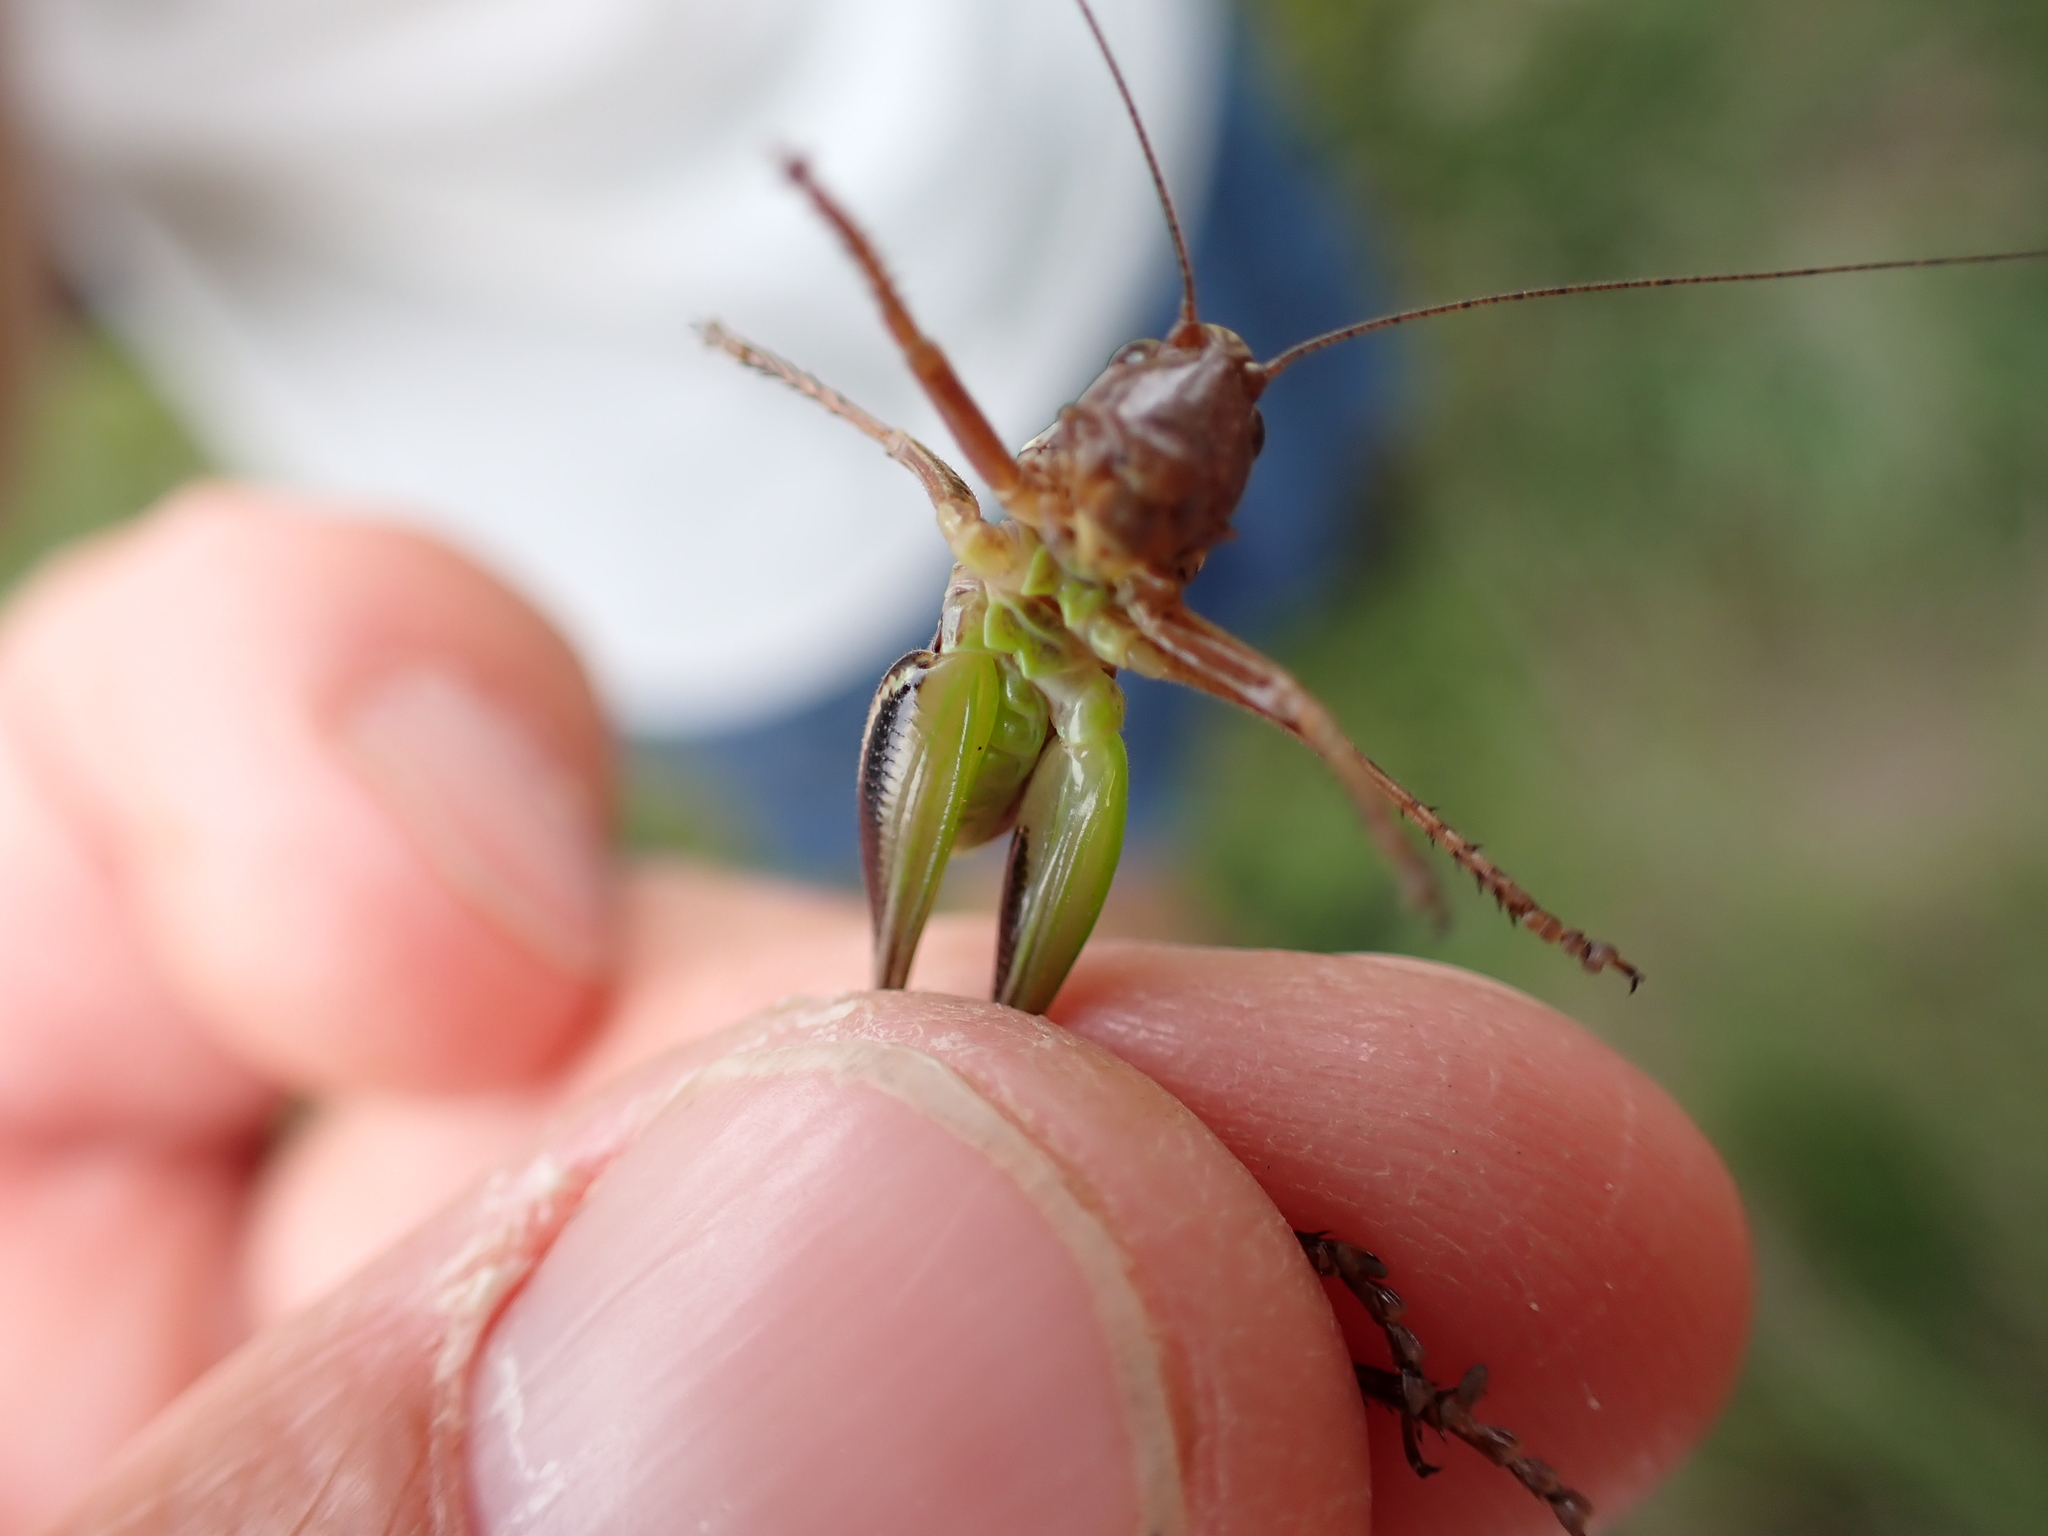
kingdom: Animalia
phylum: Arthropoda
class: Insecta
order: Orthoptera
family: Tettigoniidae
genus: Metrioptera
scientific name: Metrioptera brachyptera
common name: Bog bush-cricket
